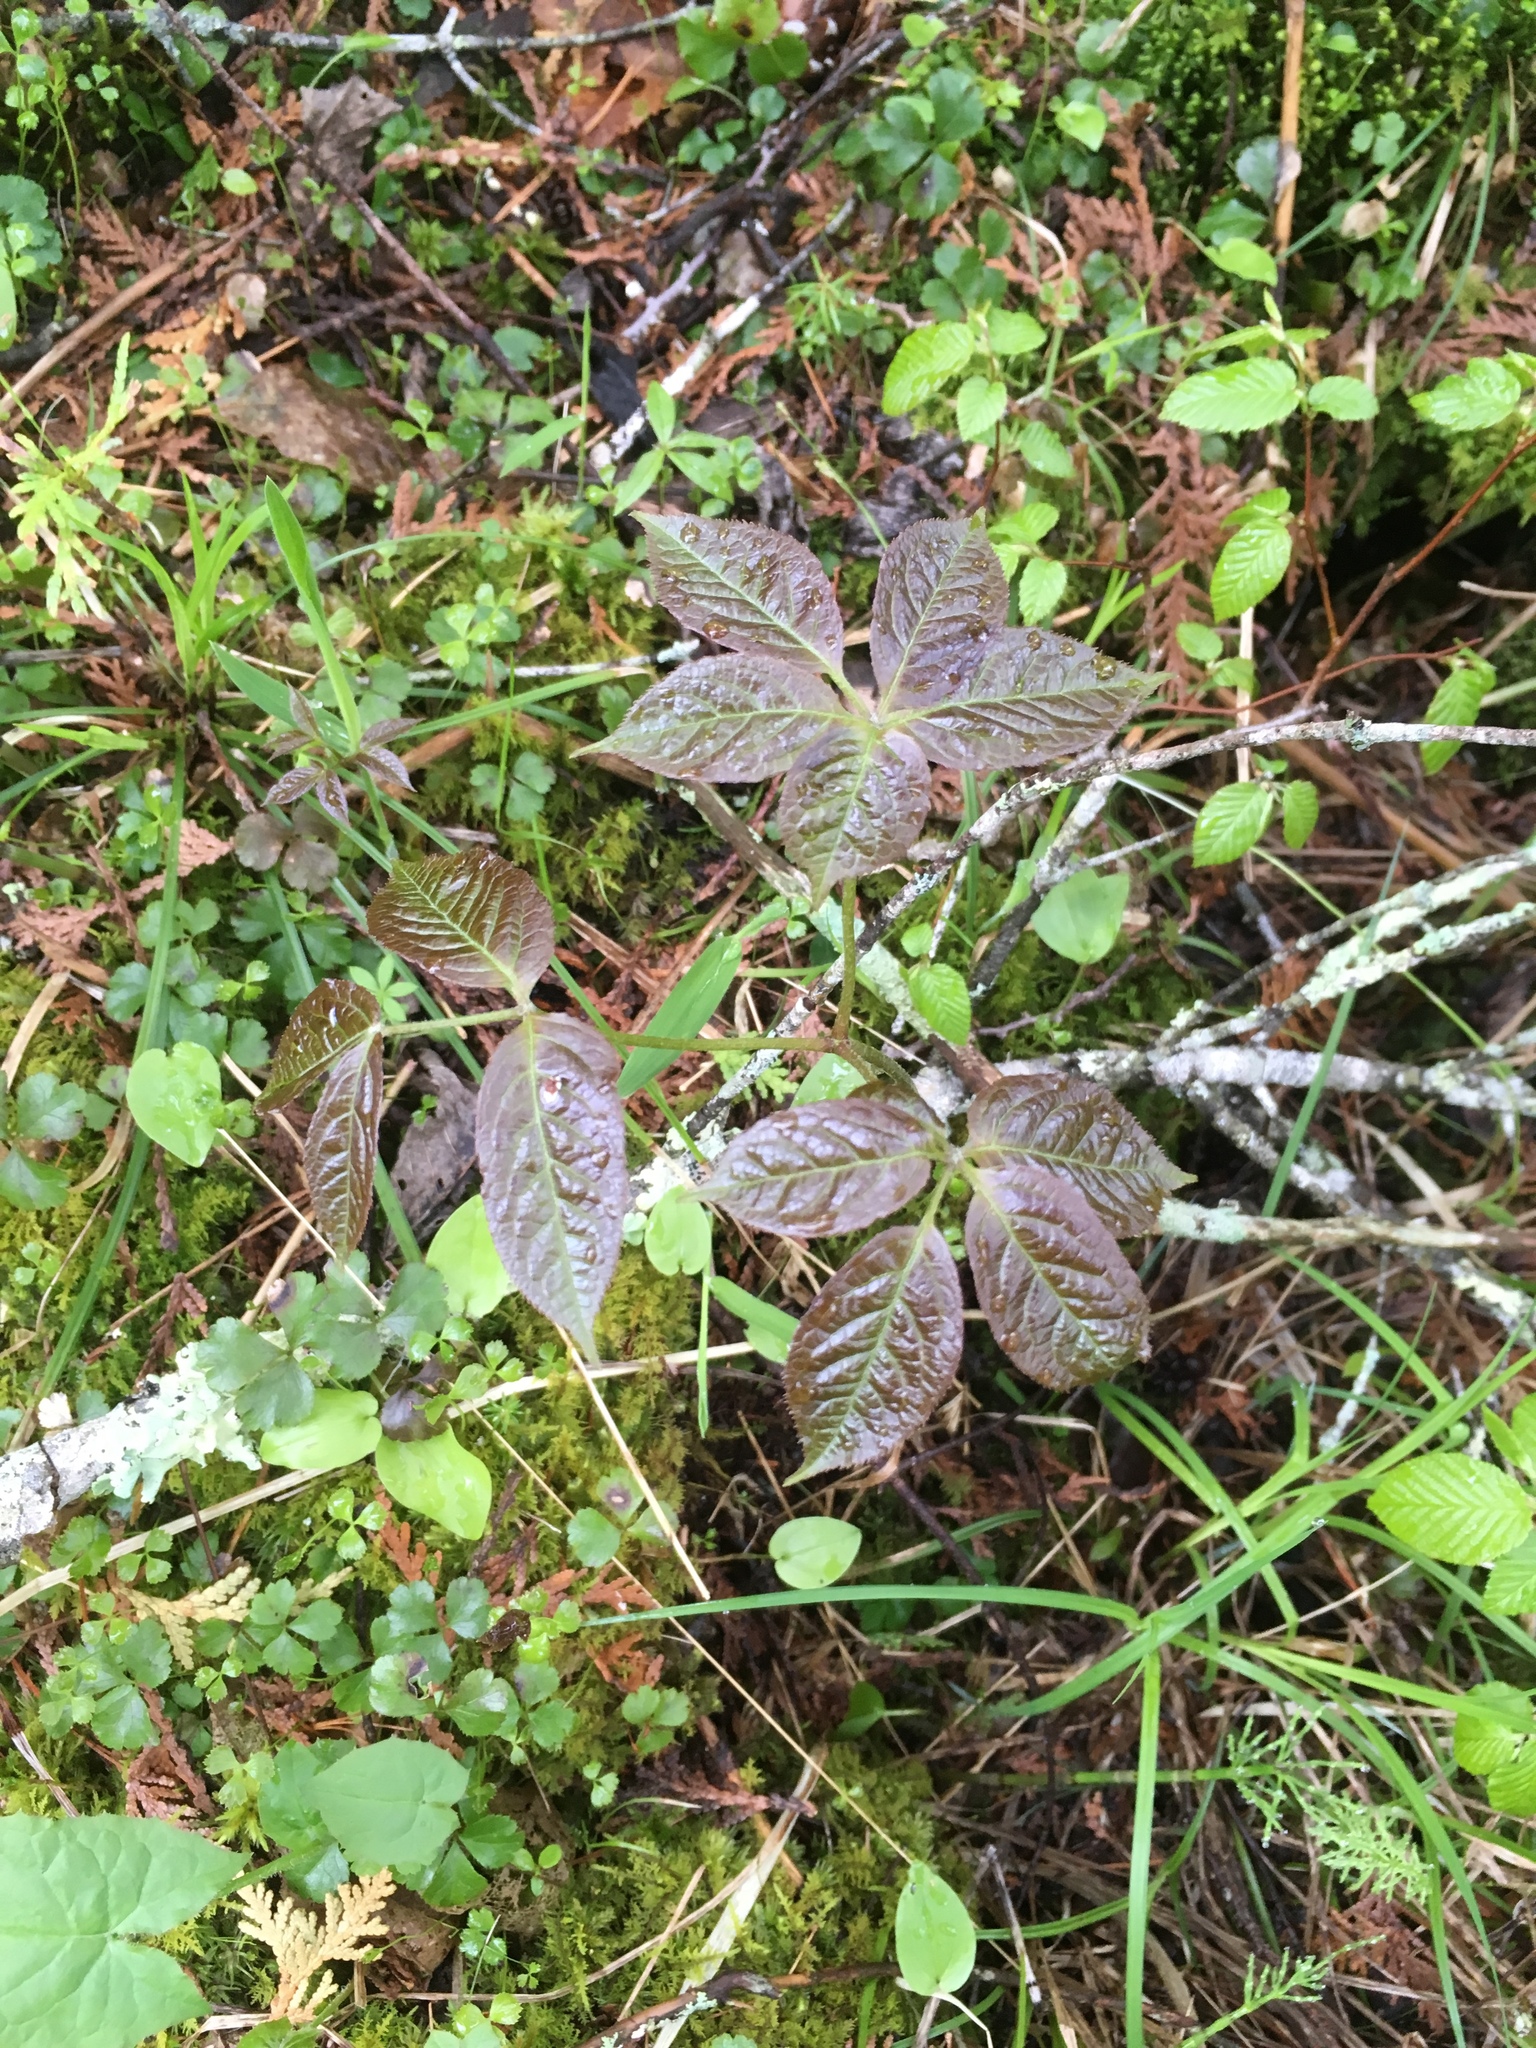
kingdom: Plantae
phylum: Tracheophyta
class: Magnoliopsida
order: Apiales
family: Araliaceae
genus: Aralia
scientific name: Aralia nudicaulis
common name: Wild sarsaparilla
